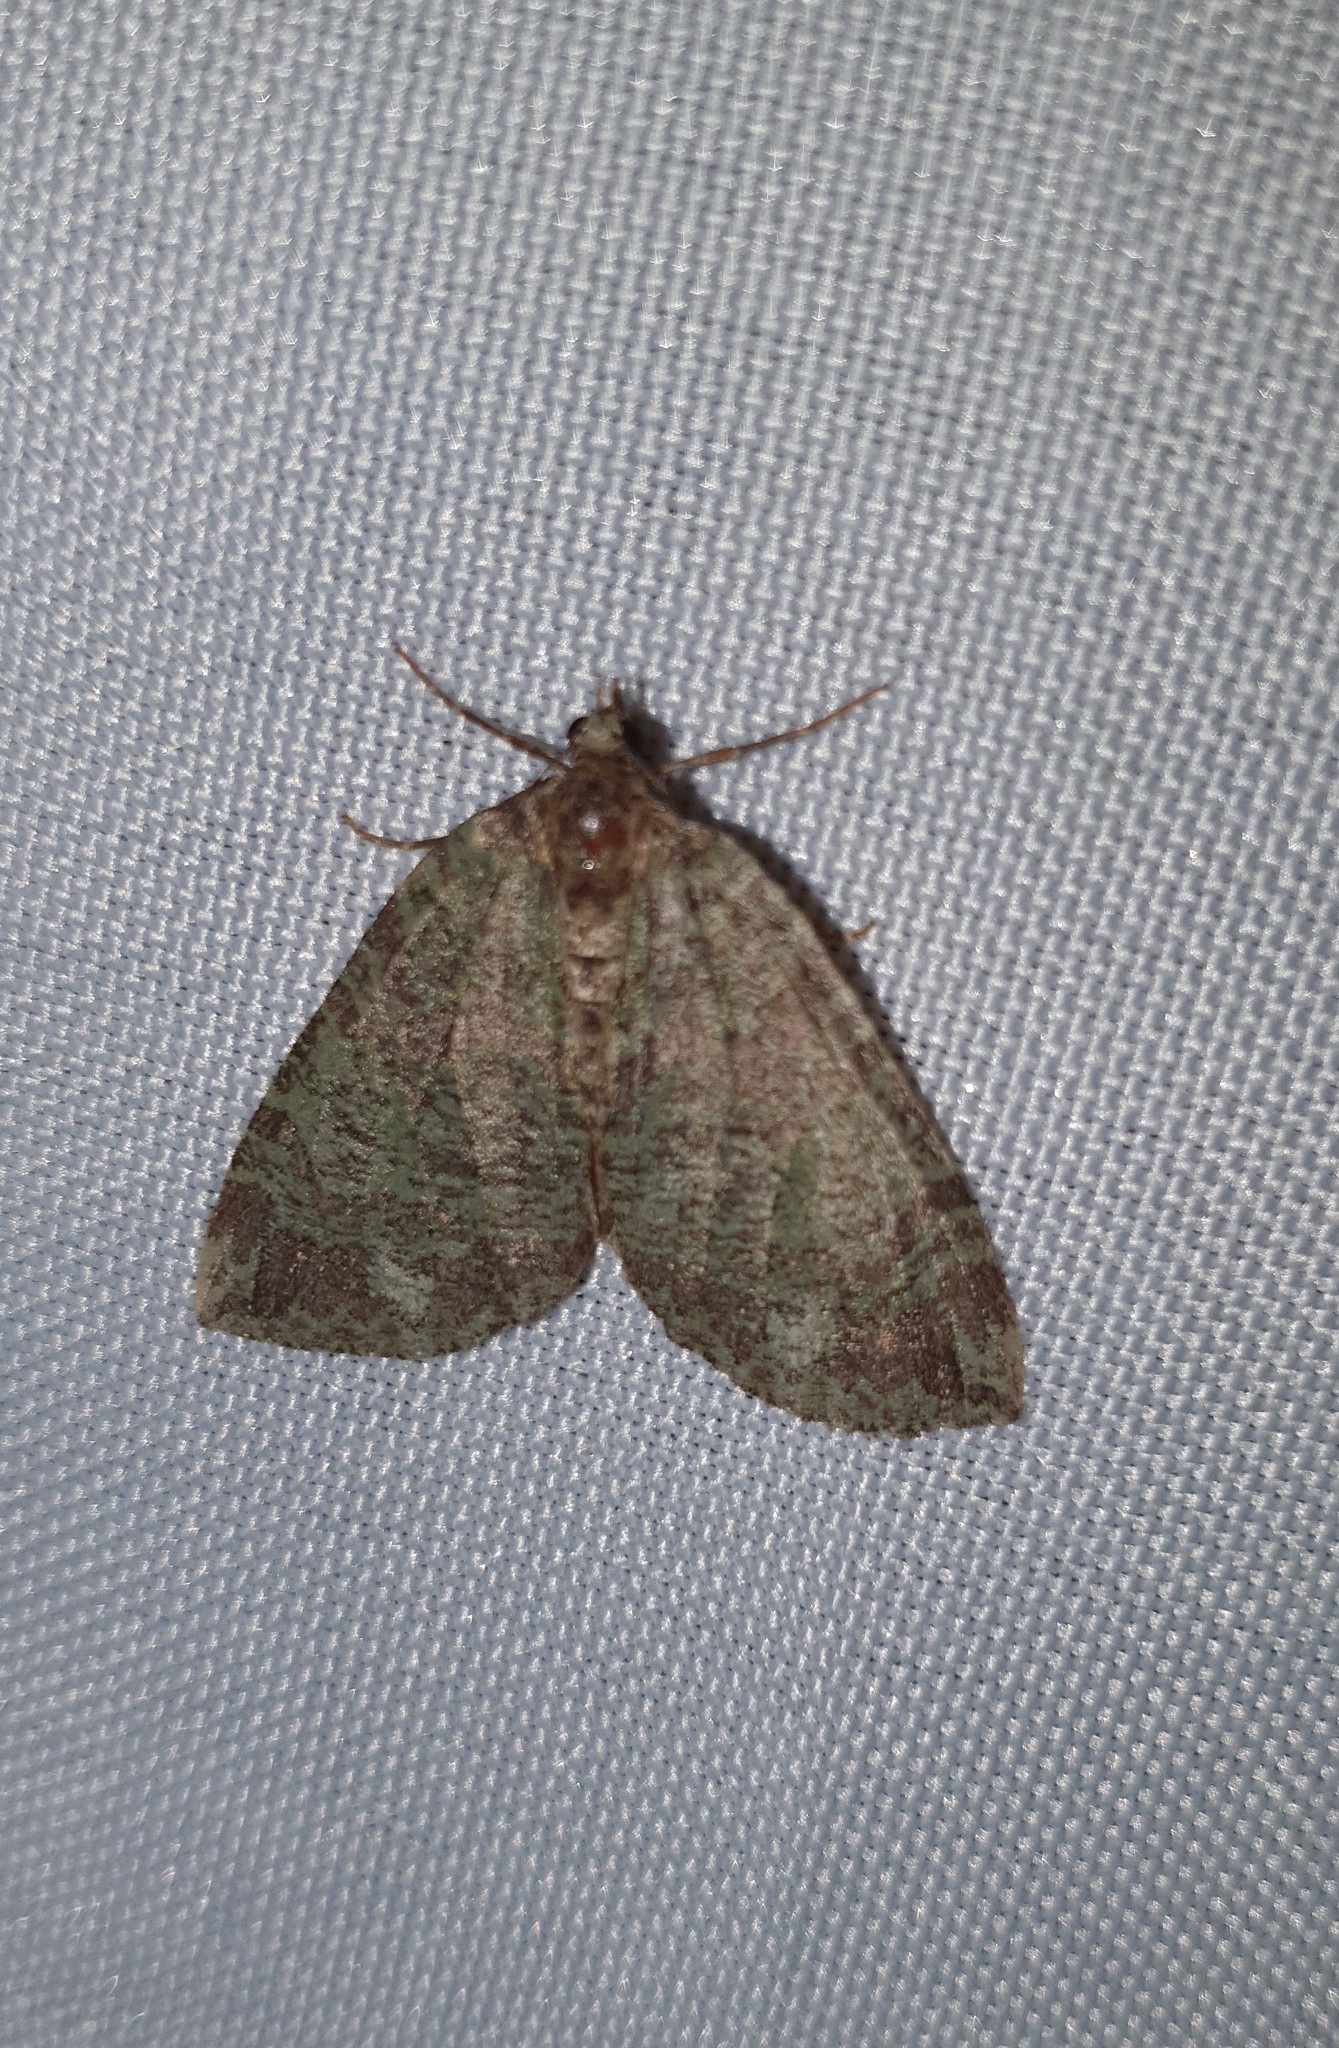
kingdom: Animalia
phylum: Arthropoda
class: Insecta
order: Lepidoptera
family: Geometridae
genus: Hydriomena
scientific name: Hydriomena furcata
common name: July highflyer
